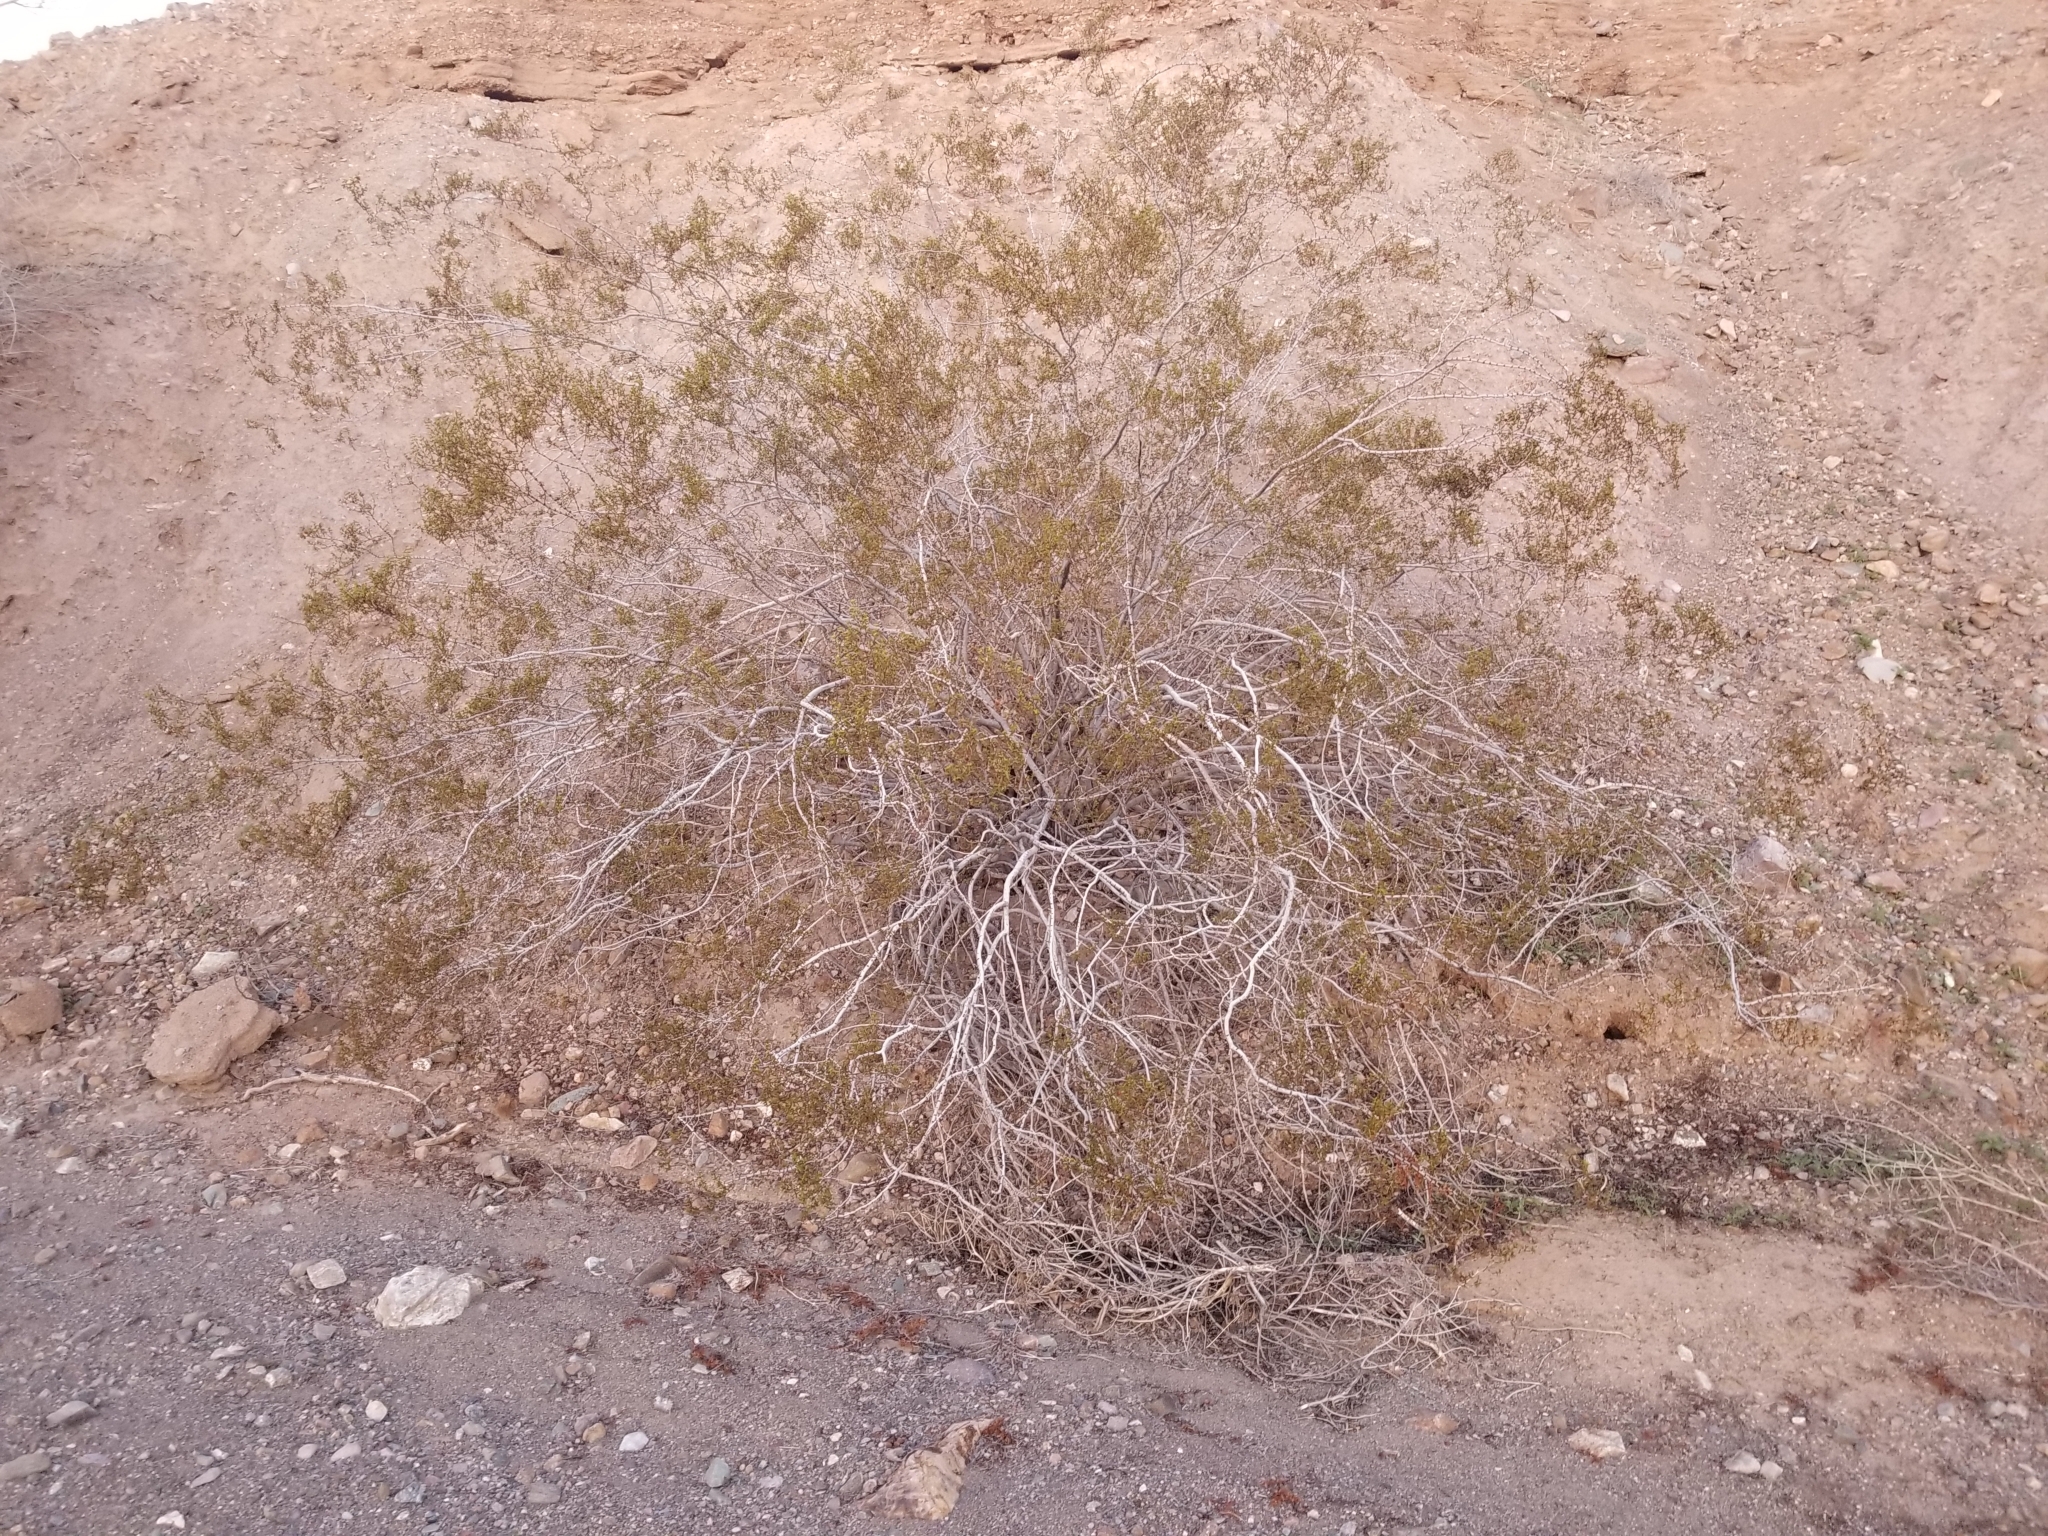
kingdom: Plantae
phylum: Tracheophyta
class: Magnoliopsida
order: Zygophyllales
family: Zygophyllaceae
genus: Larrea
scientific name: Larrea tridentata
